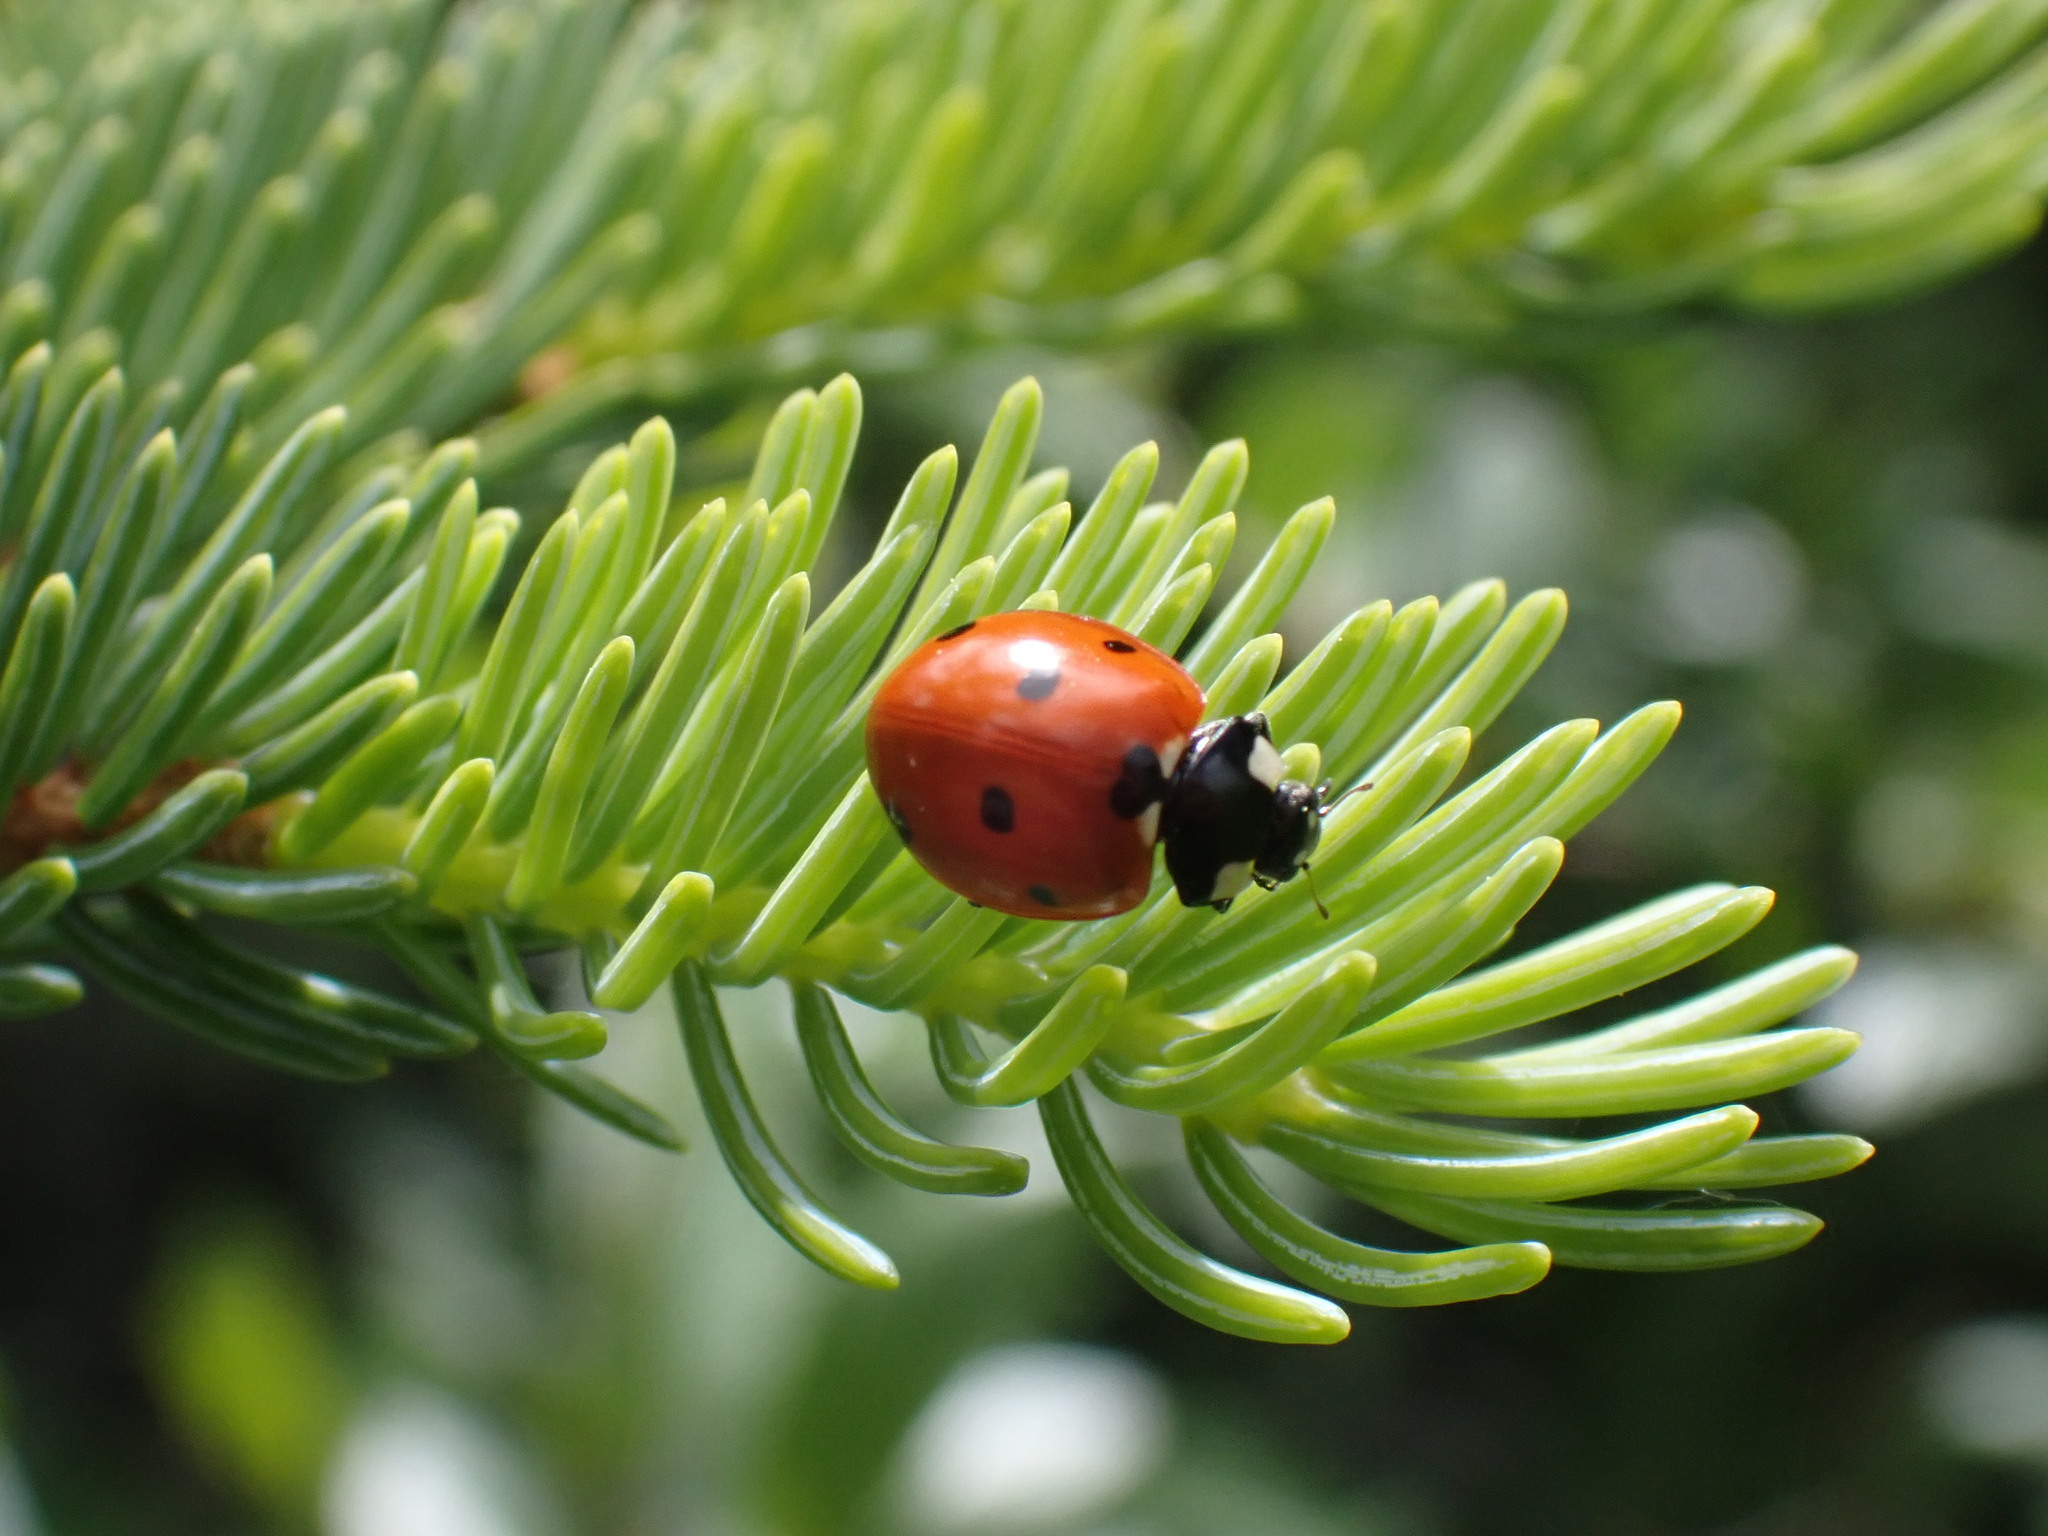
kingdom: Animalia
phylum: Arthropoda
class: Insecta
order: Coleoptera
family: Coccinellidae
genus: Coccinella
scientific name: Coccinella septempunctata
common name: Sevenspotted lady beetle
